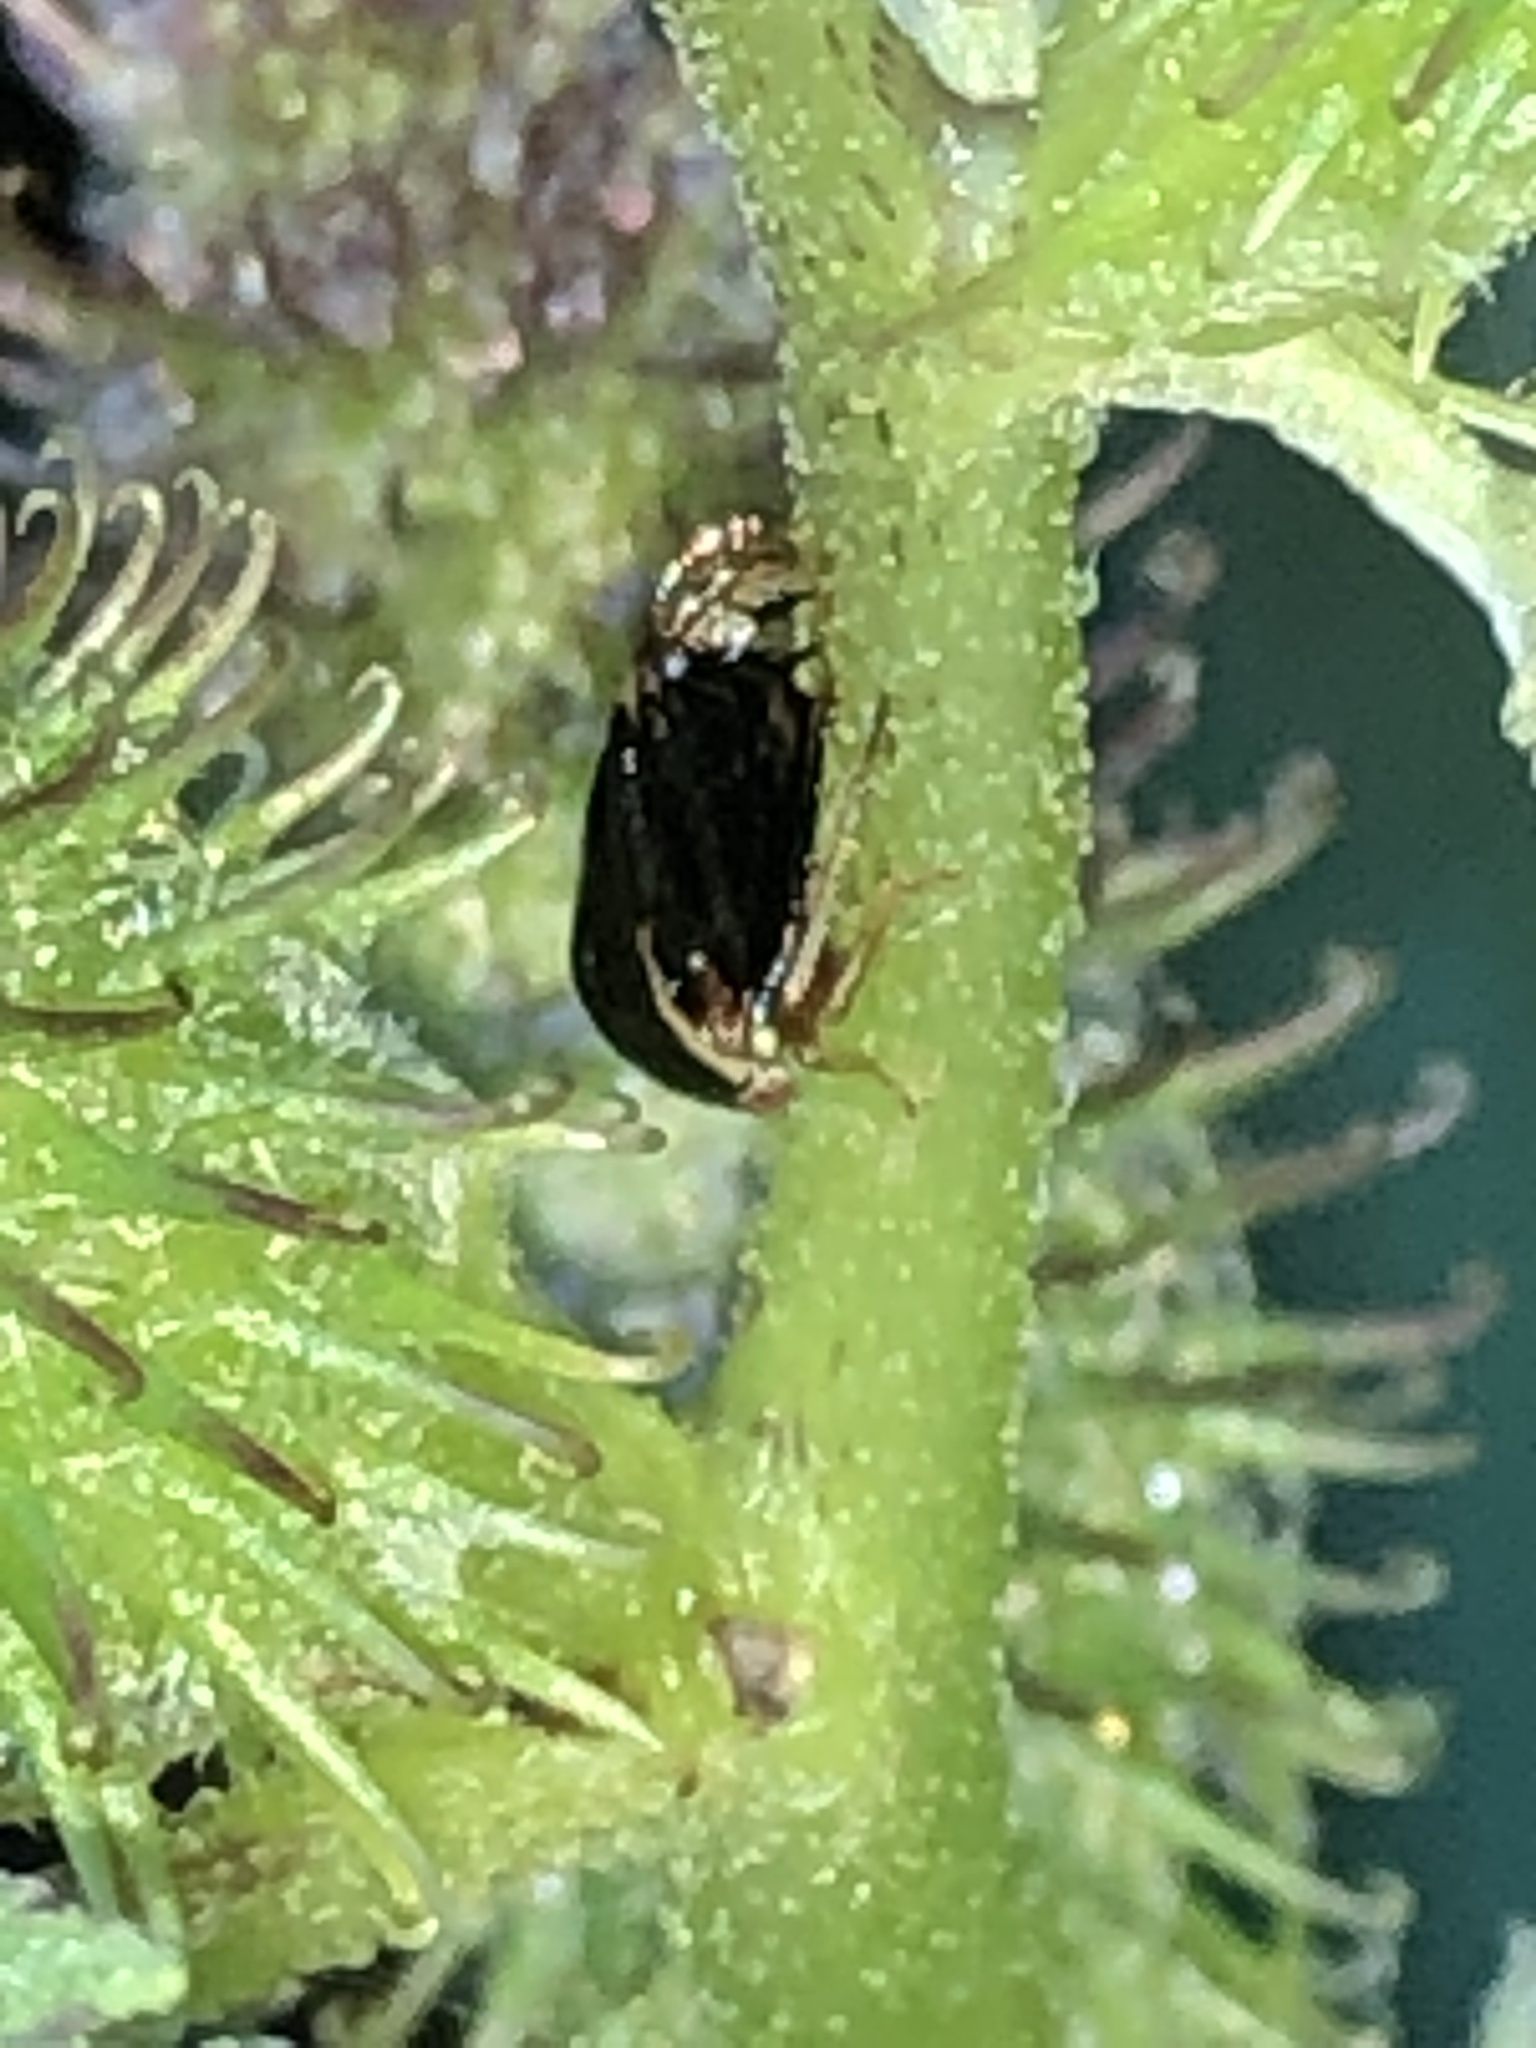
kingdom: Animalia
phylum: Arthropoda
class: Insecta
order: Hemiptera
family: Membracidae
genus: Acutalis
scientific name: Acutalis tartarea
